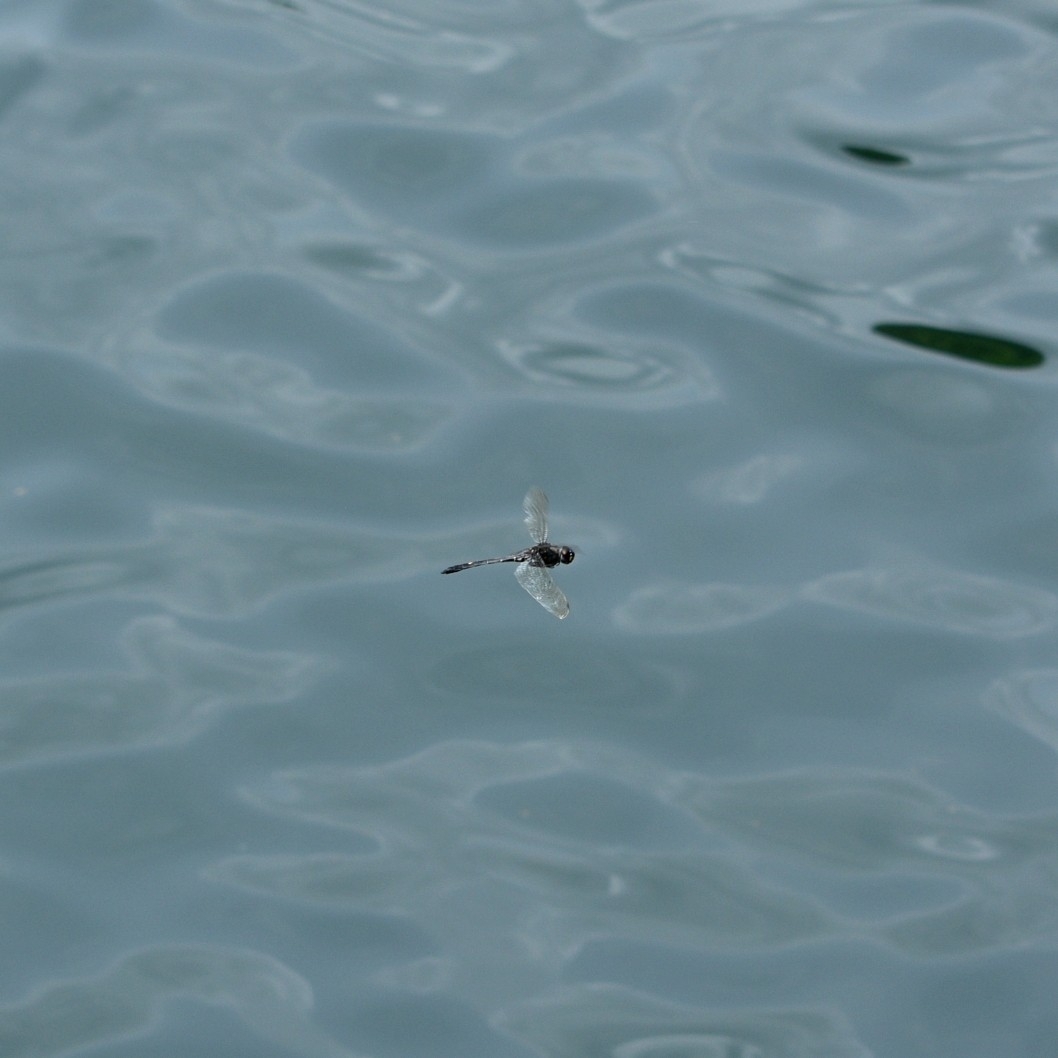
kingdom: Animalia
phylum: Arthropoda
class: Insecta
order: Odonata
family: Libellulidae
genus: Zygonyx
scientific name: Zygonyx iris
